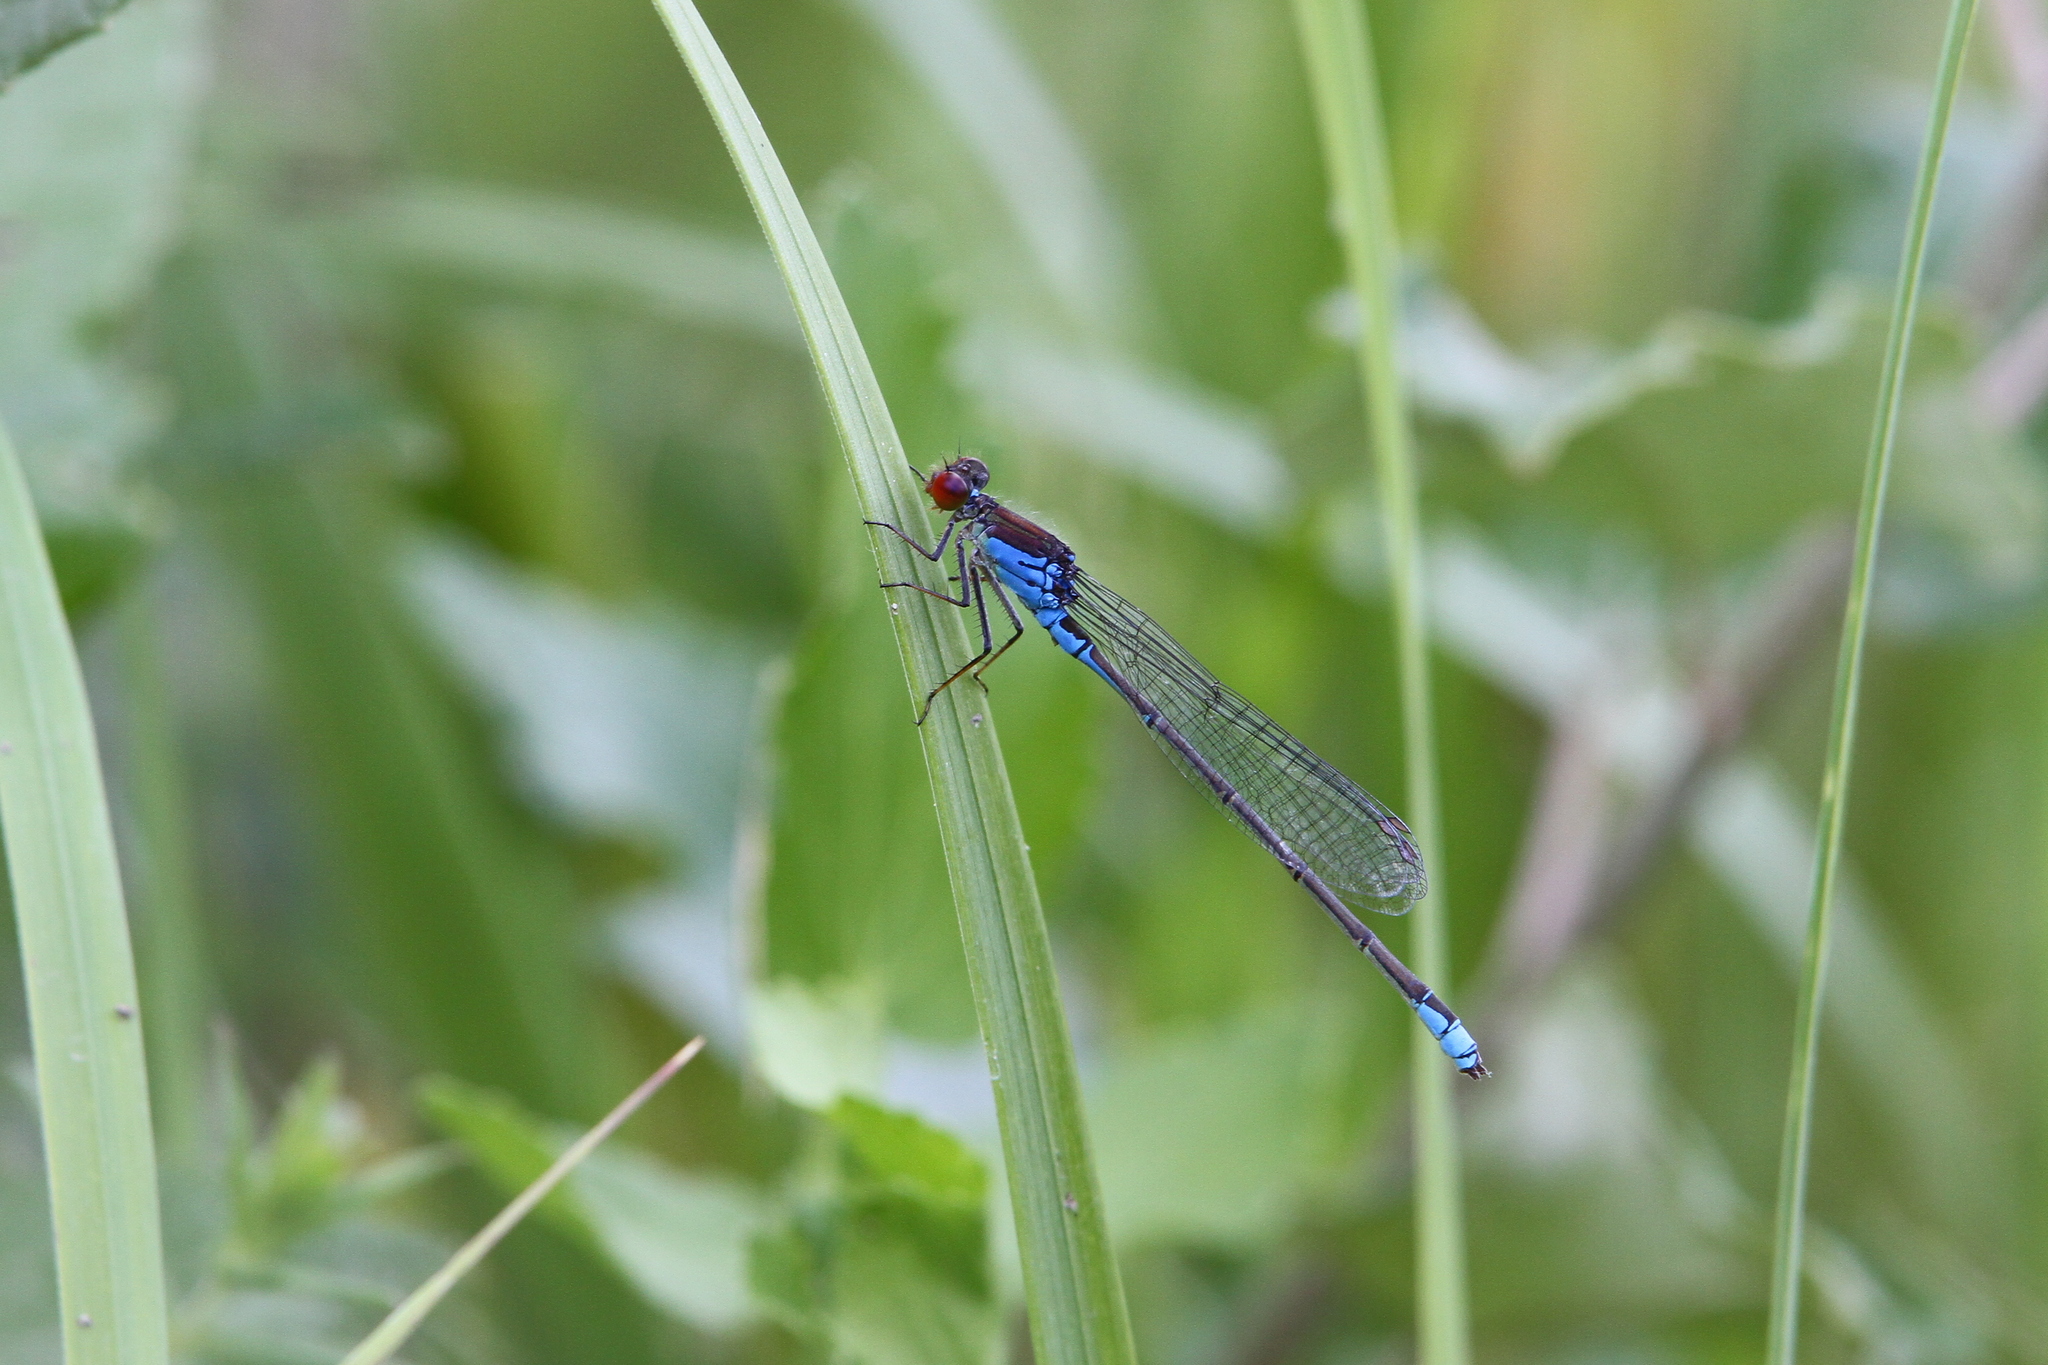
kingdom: Animalia
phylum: Arthropoda
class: Insecta
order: Odonata
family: Coenagrionidae
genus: Erythromma
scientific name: Erythromma viridulum
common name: Small red-eyed damselfly
